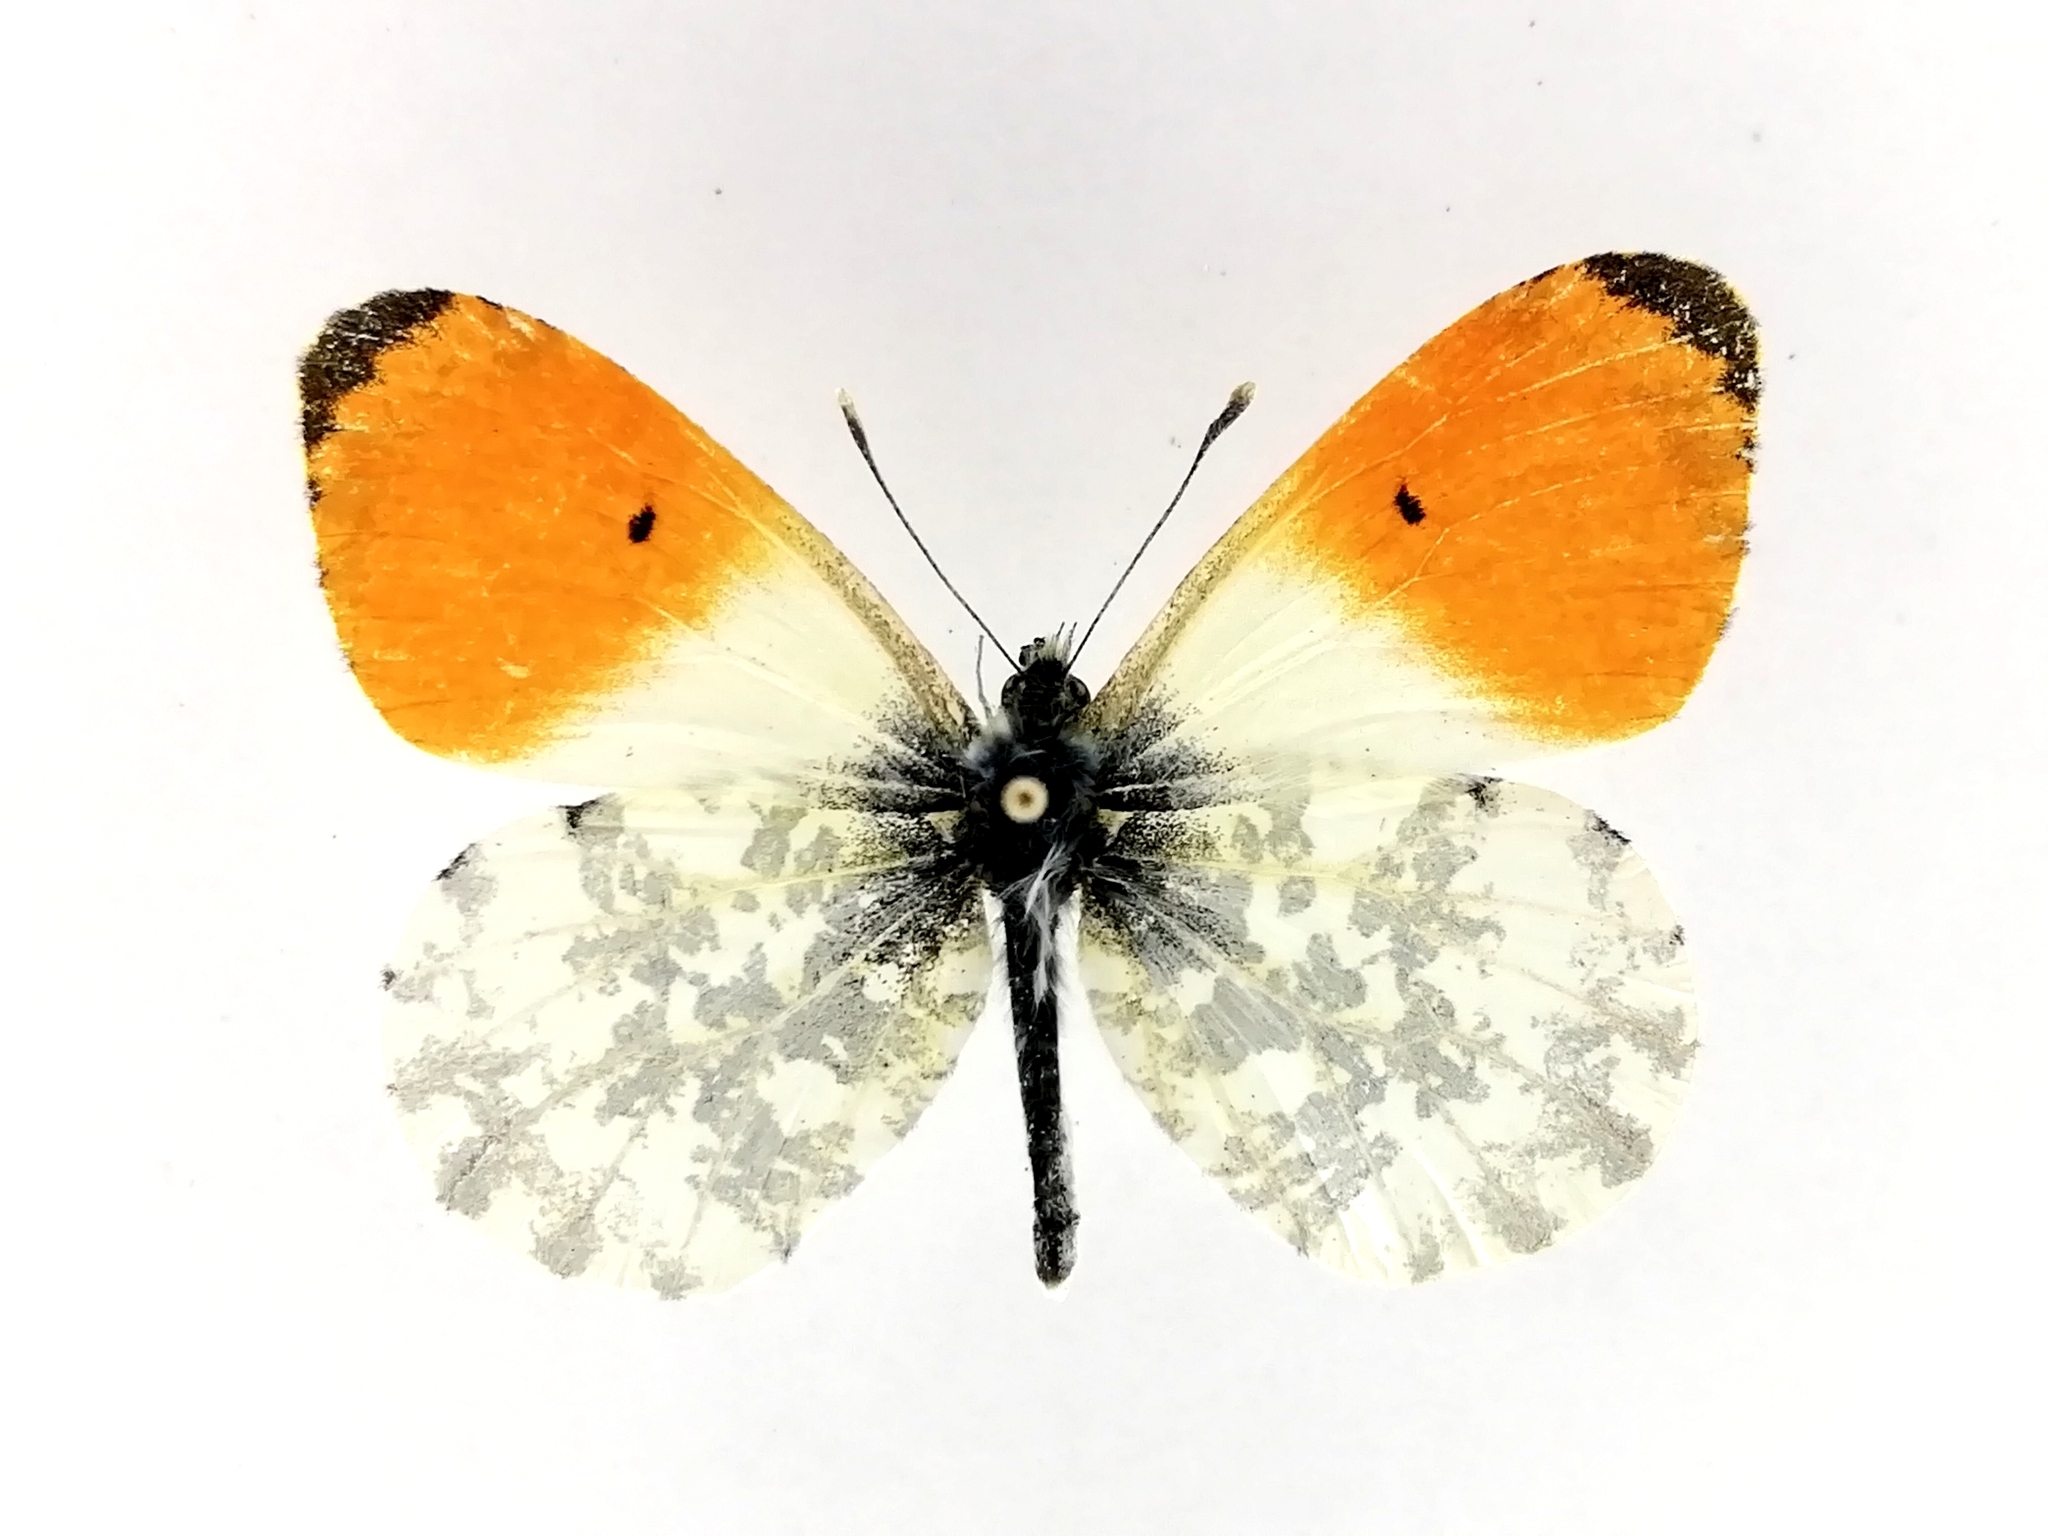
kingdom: Animalia
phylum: Arthropoda
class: Insecta
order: Lepidoptera
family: Pieridae
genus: Anthocharis
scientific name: Anthocharis cardamines
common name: Orange-tip
